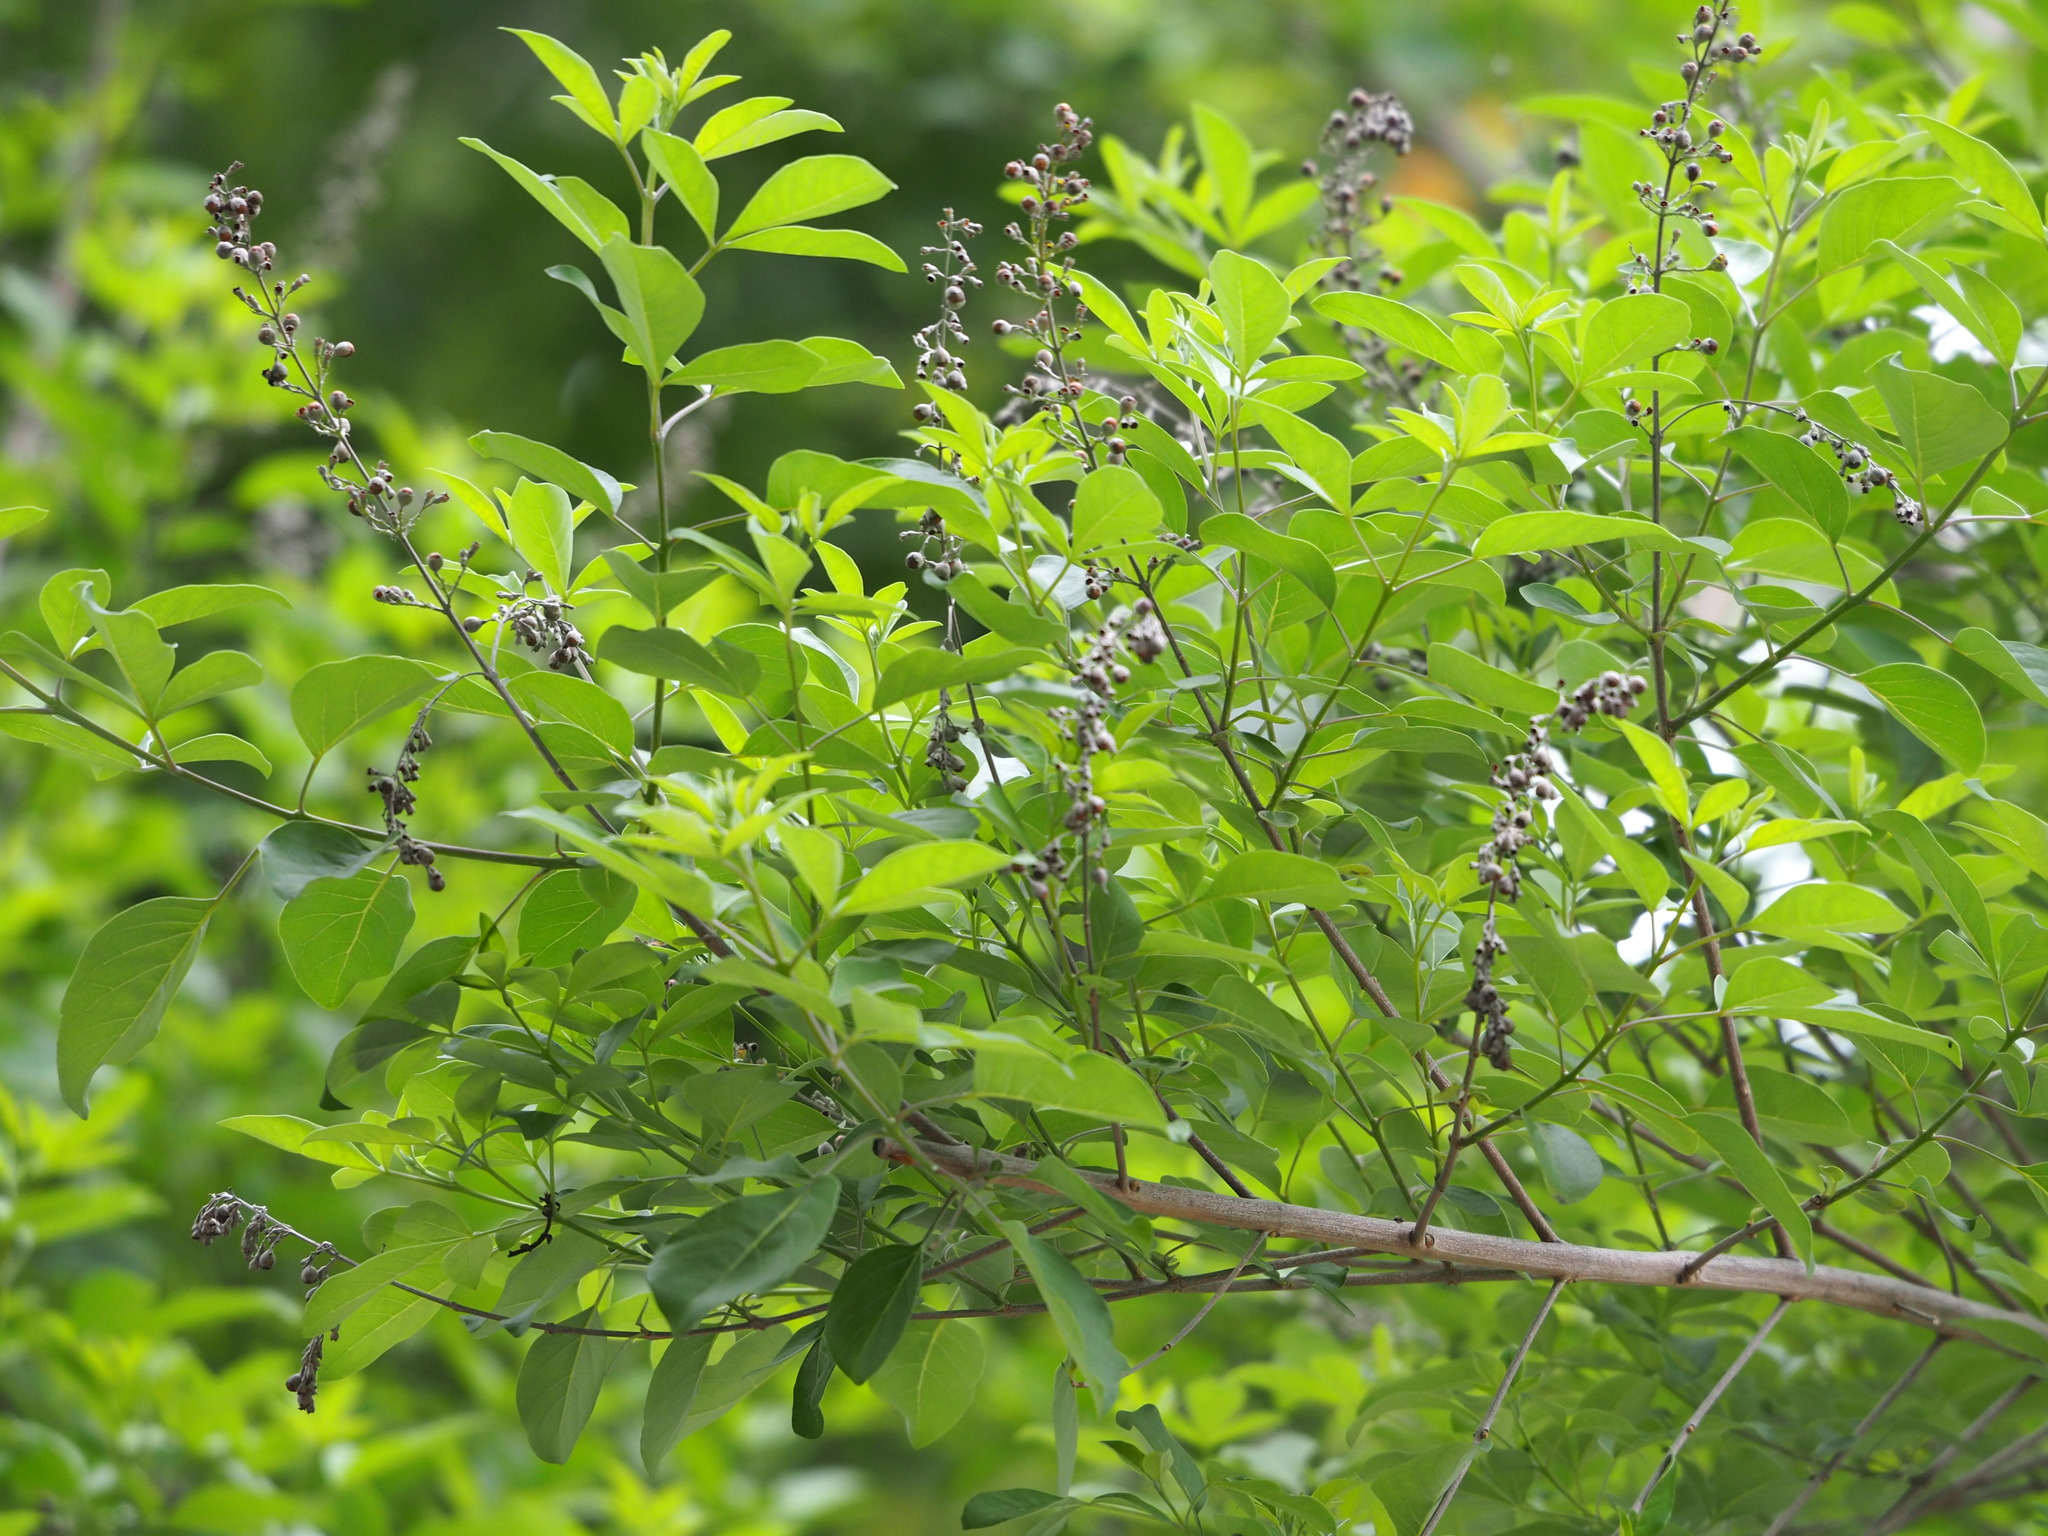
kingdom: Plantae
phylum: Tracheophyta
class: Magnoliopsida
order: Lamiales
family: Lamiaceae
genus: Vitex
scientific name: Vitex negundo
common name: Chinese chastetree
